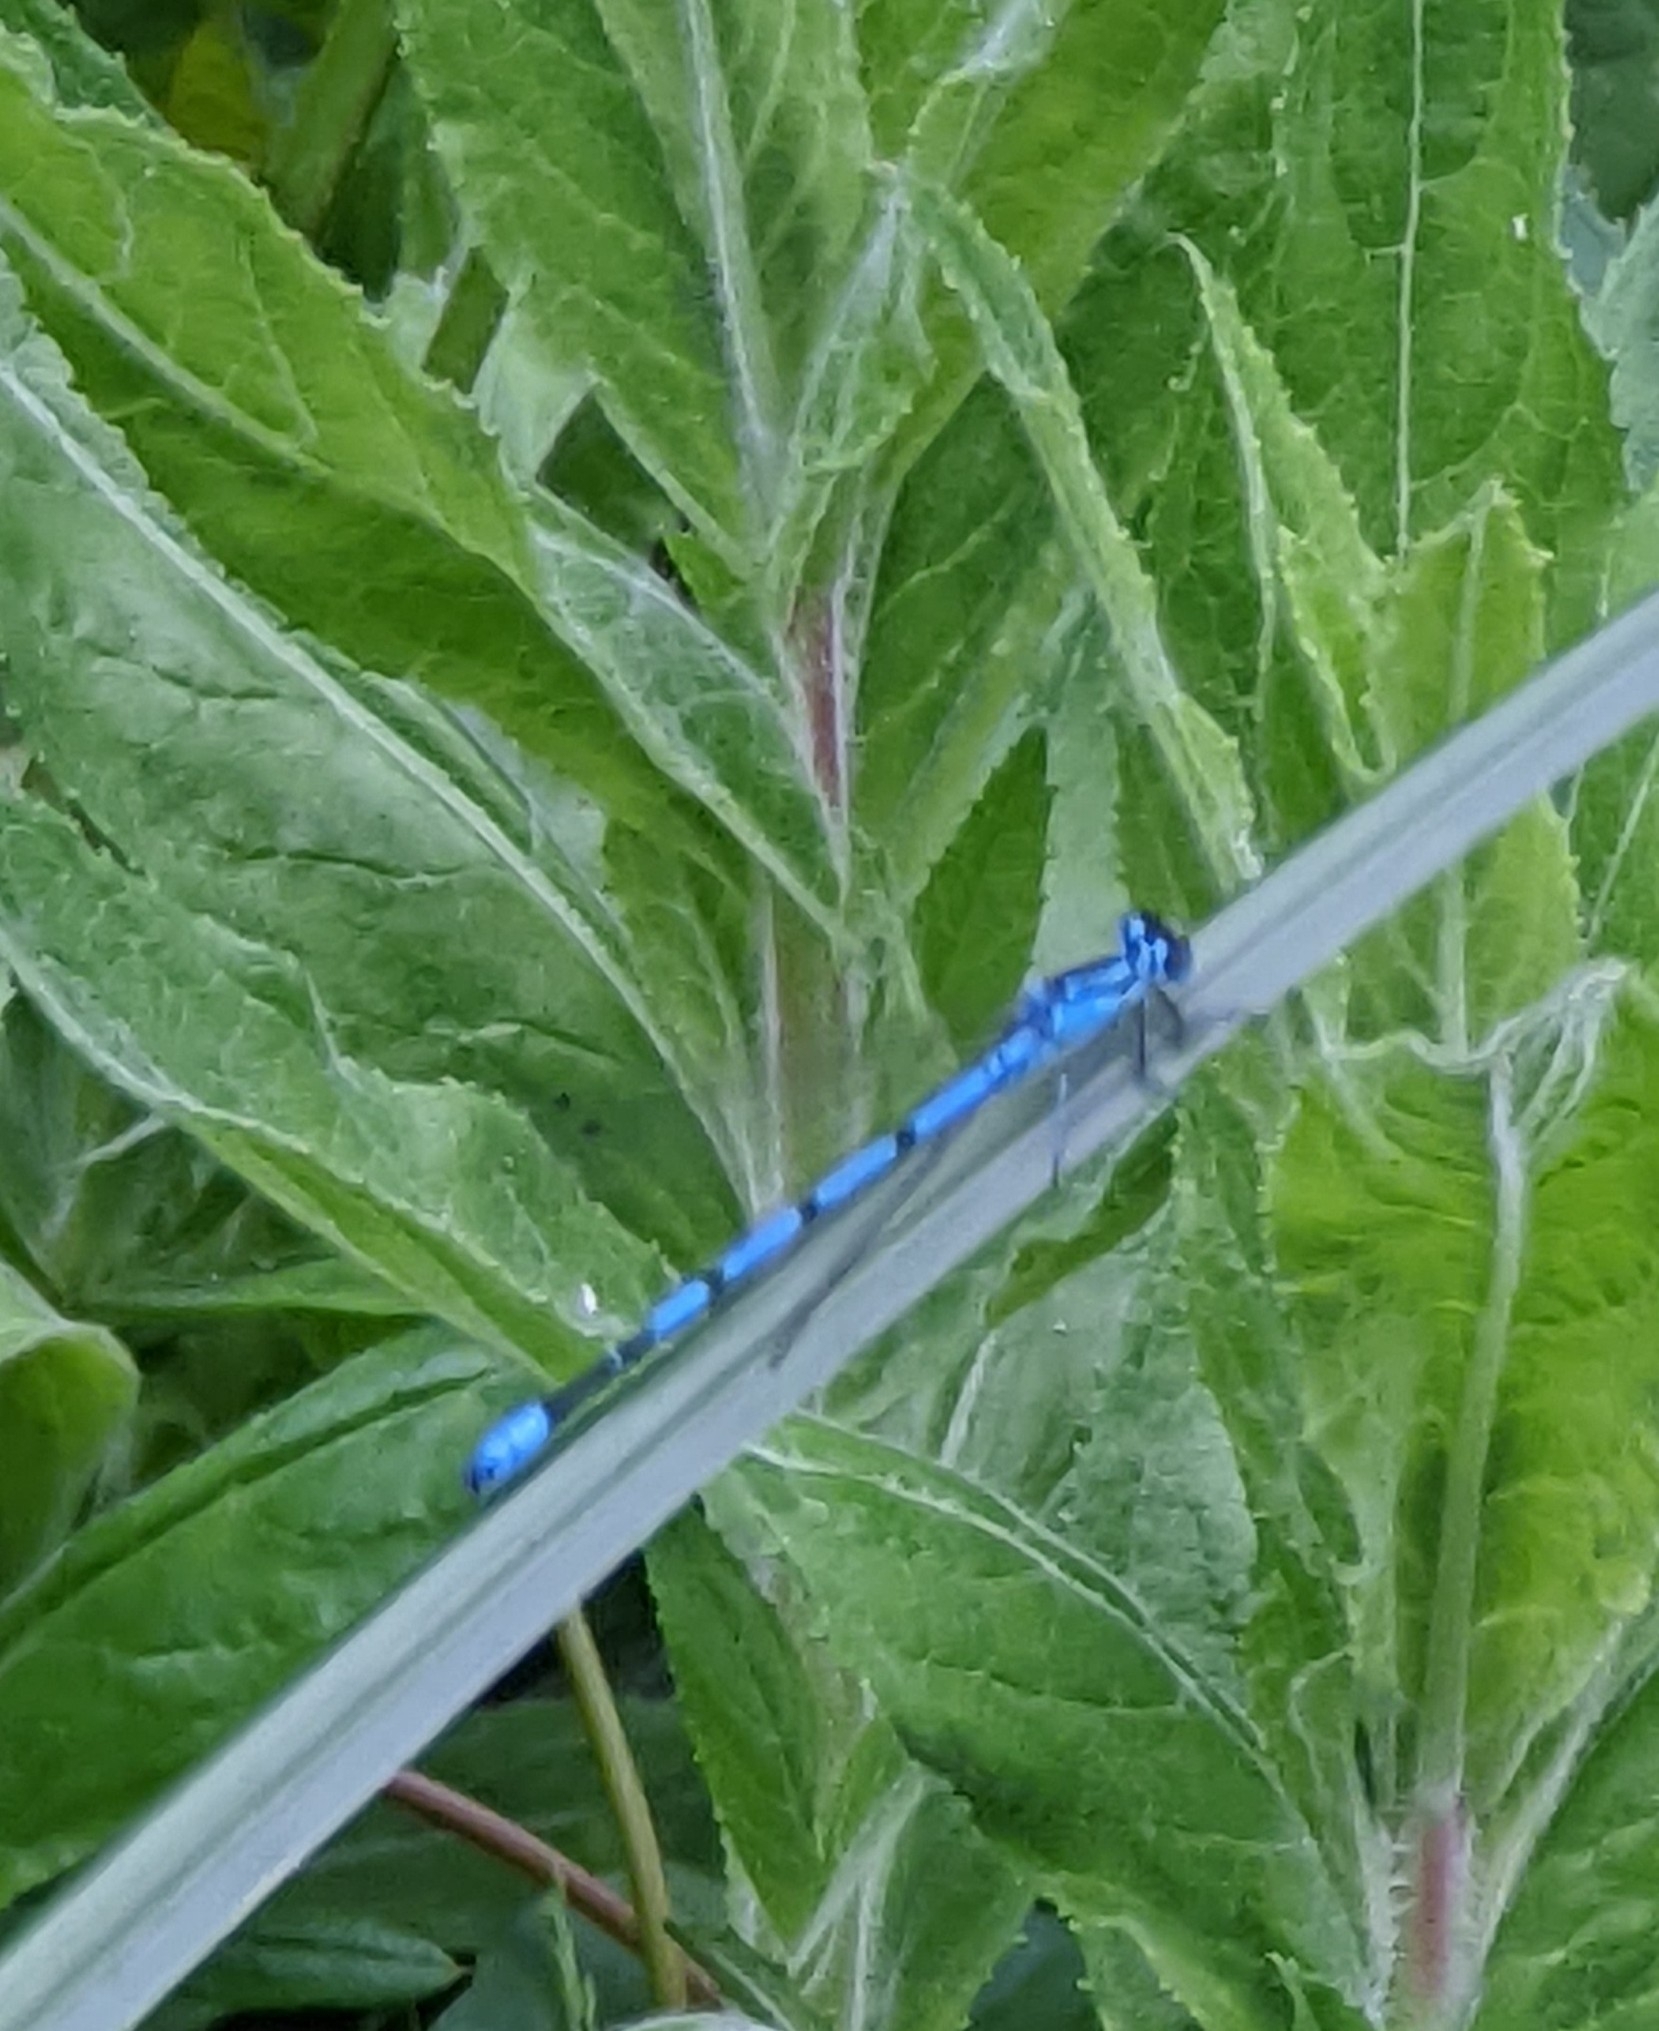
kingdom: Animalia
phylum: Arthropoda
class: Insecta
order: Odonata
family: Coenagrionidae
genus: Coenagrion
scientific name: Coenagrion puella
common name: Azure damselfly
